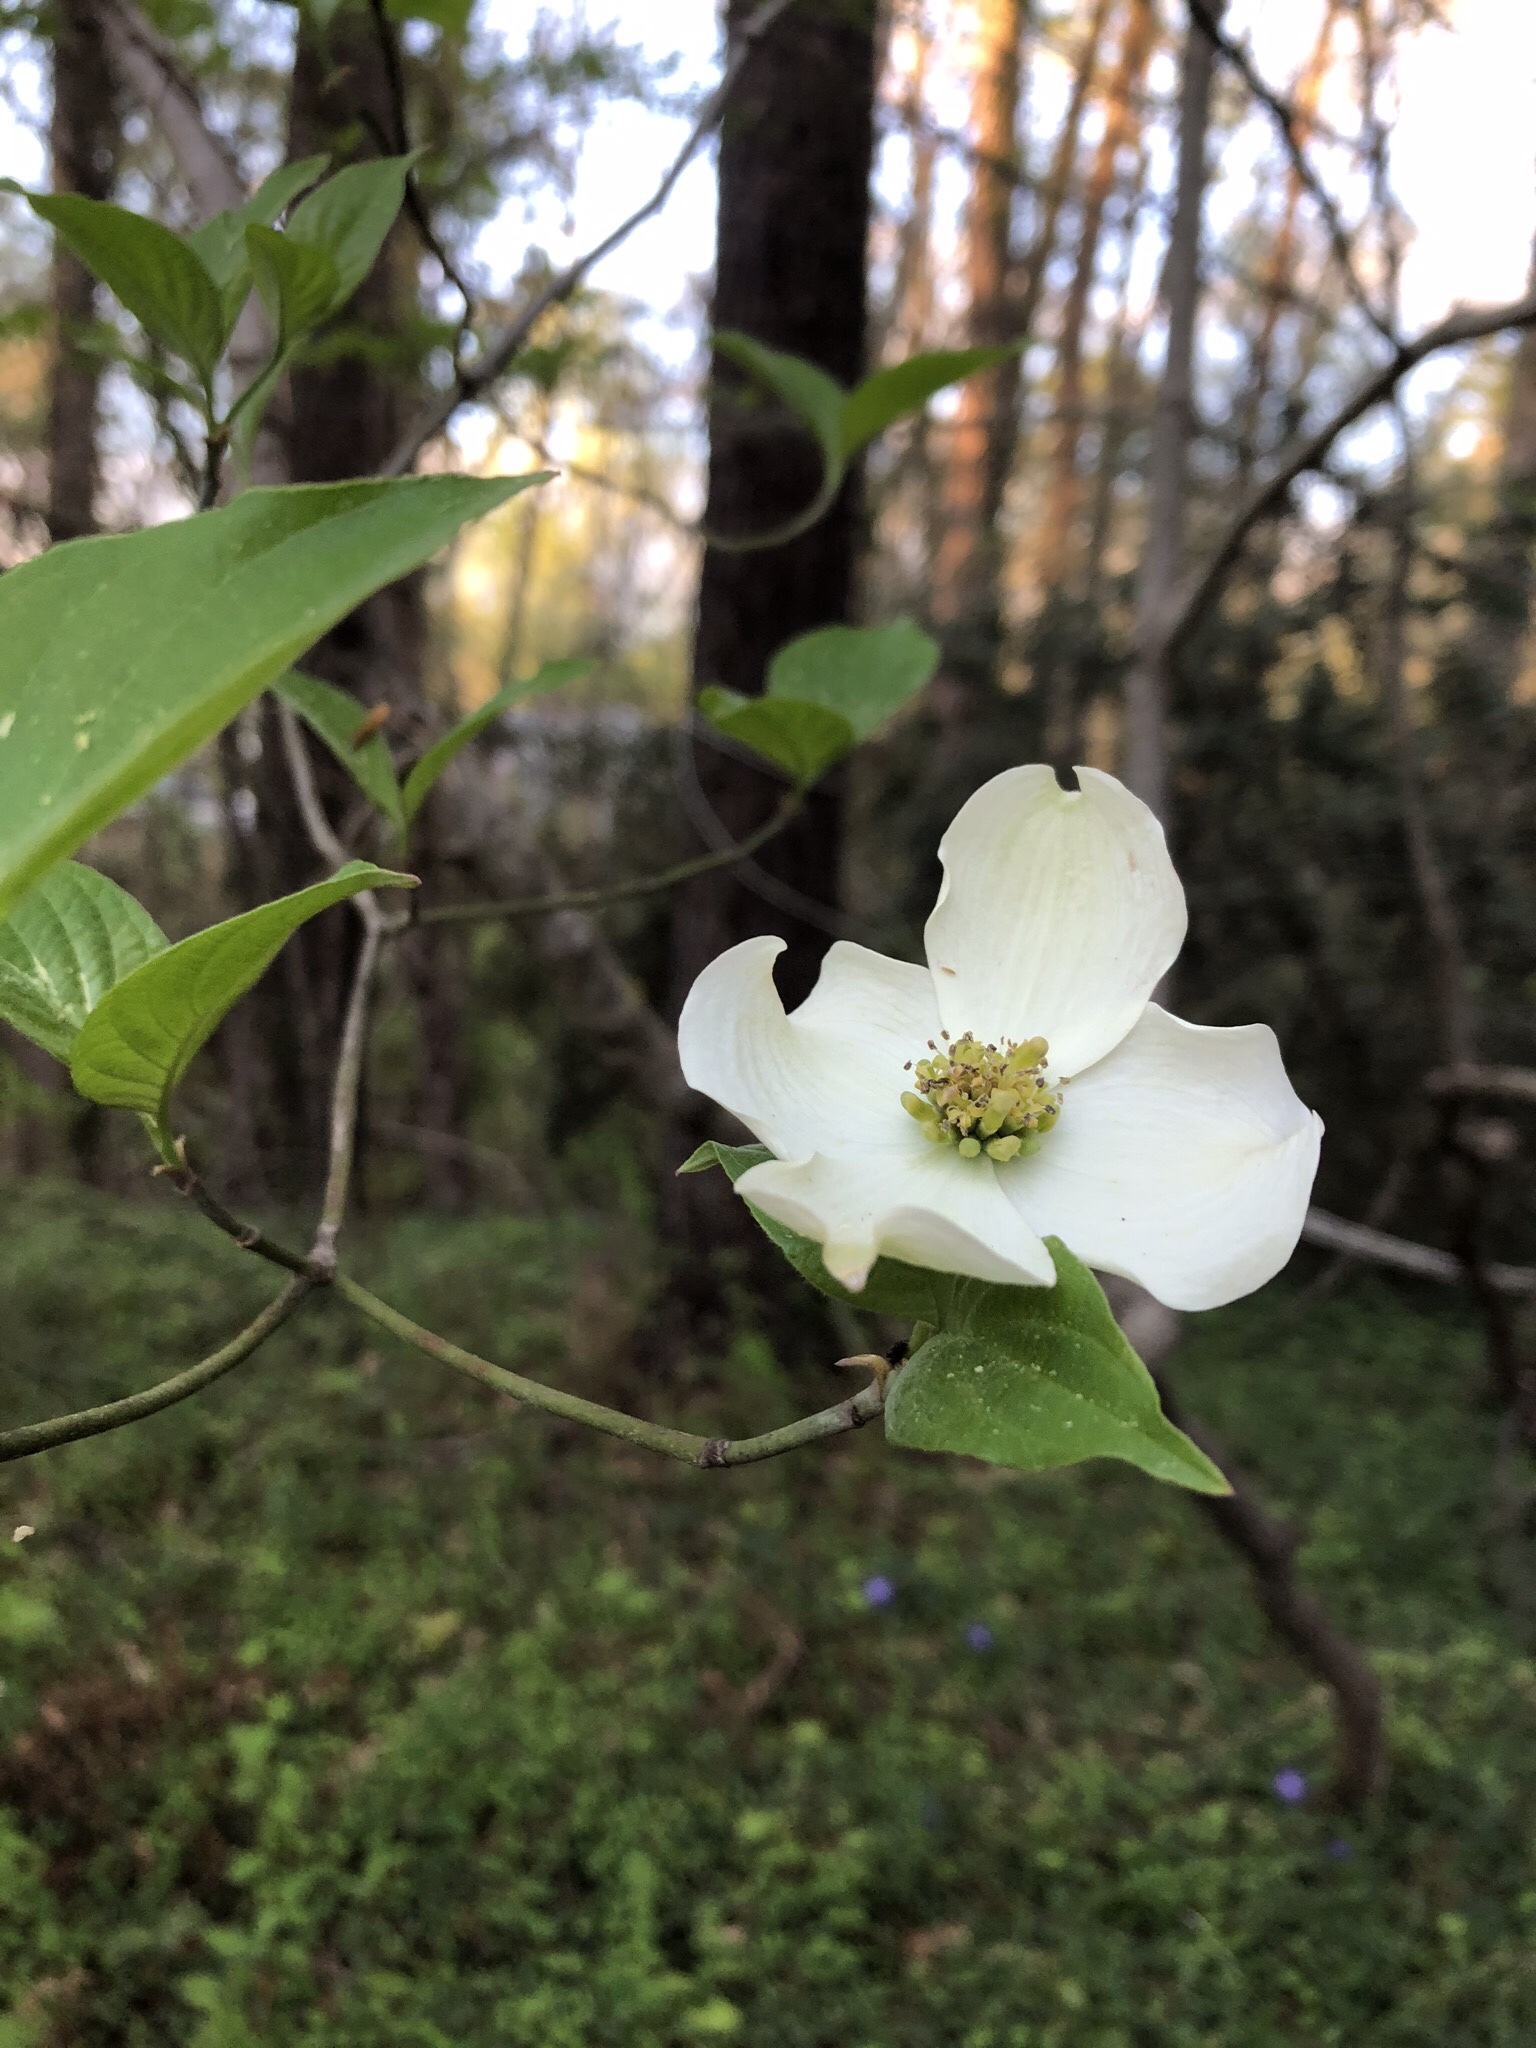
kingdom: Plantae
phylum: Tracheophyta
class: Magnoliopsida
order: Cornales
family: Cornaceae
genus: Cornus
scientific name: Cornus florida
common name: Flowering dogwood
